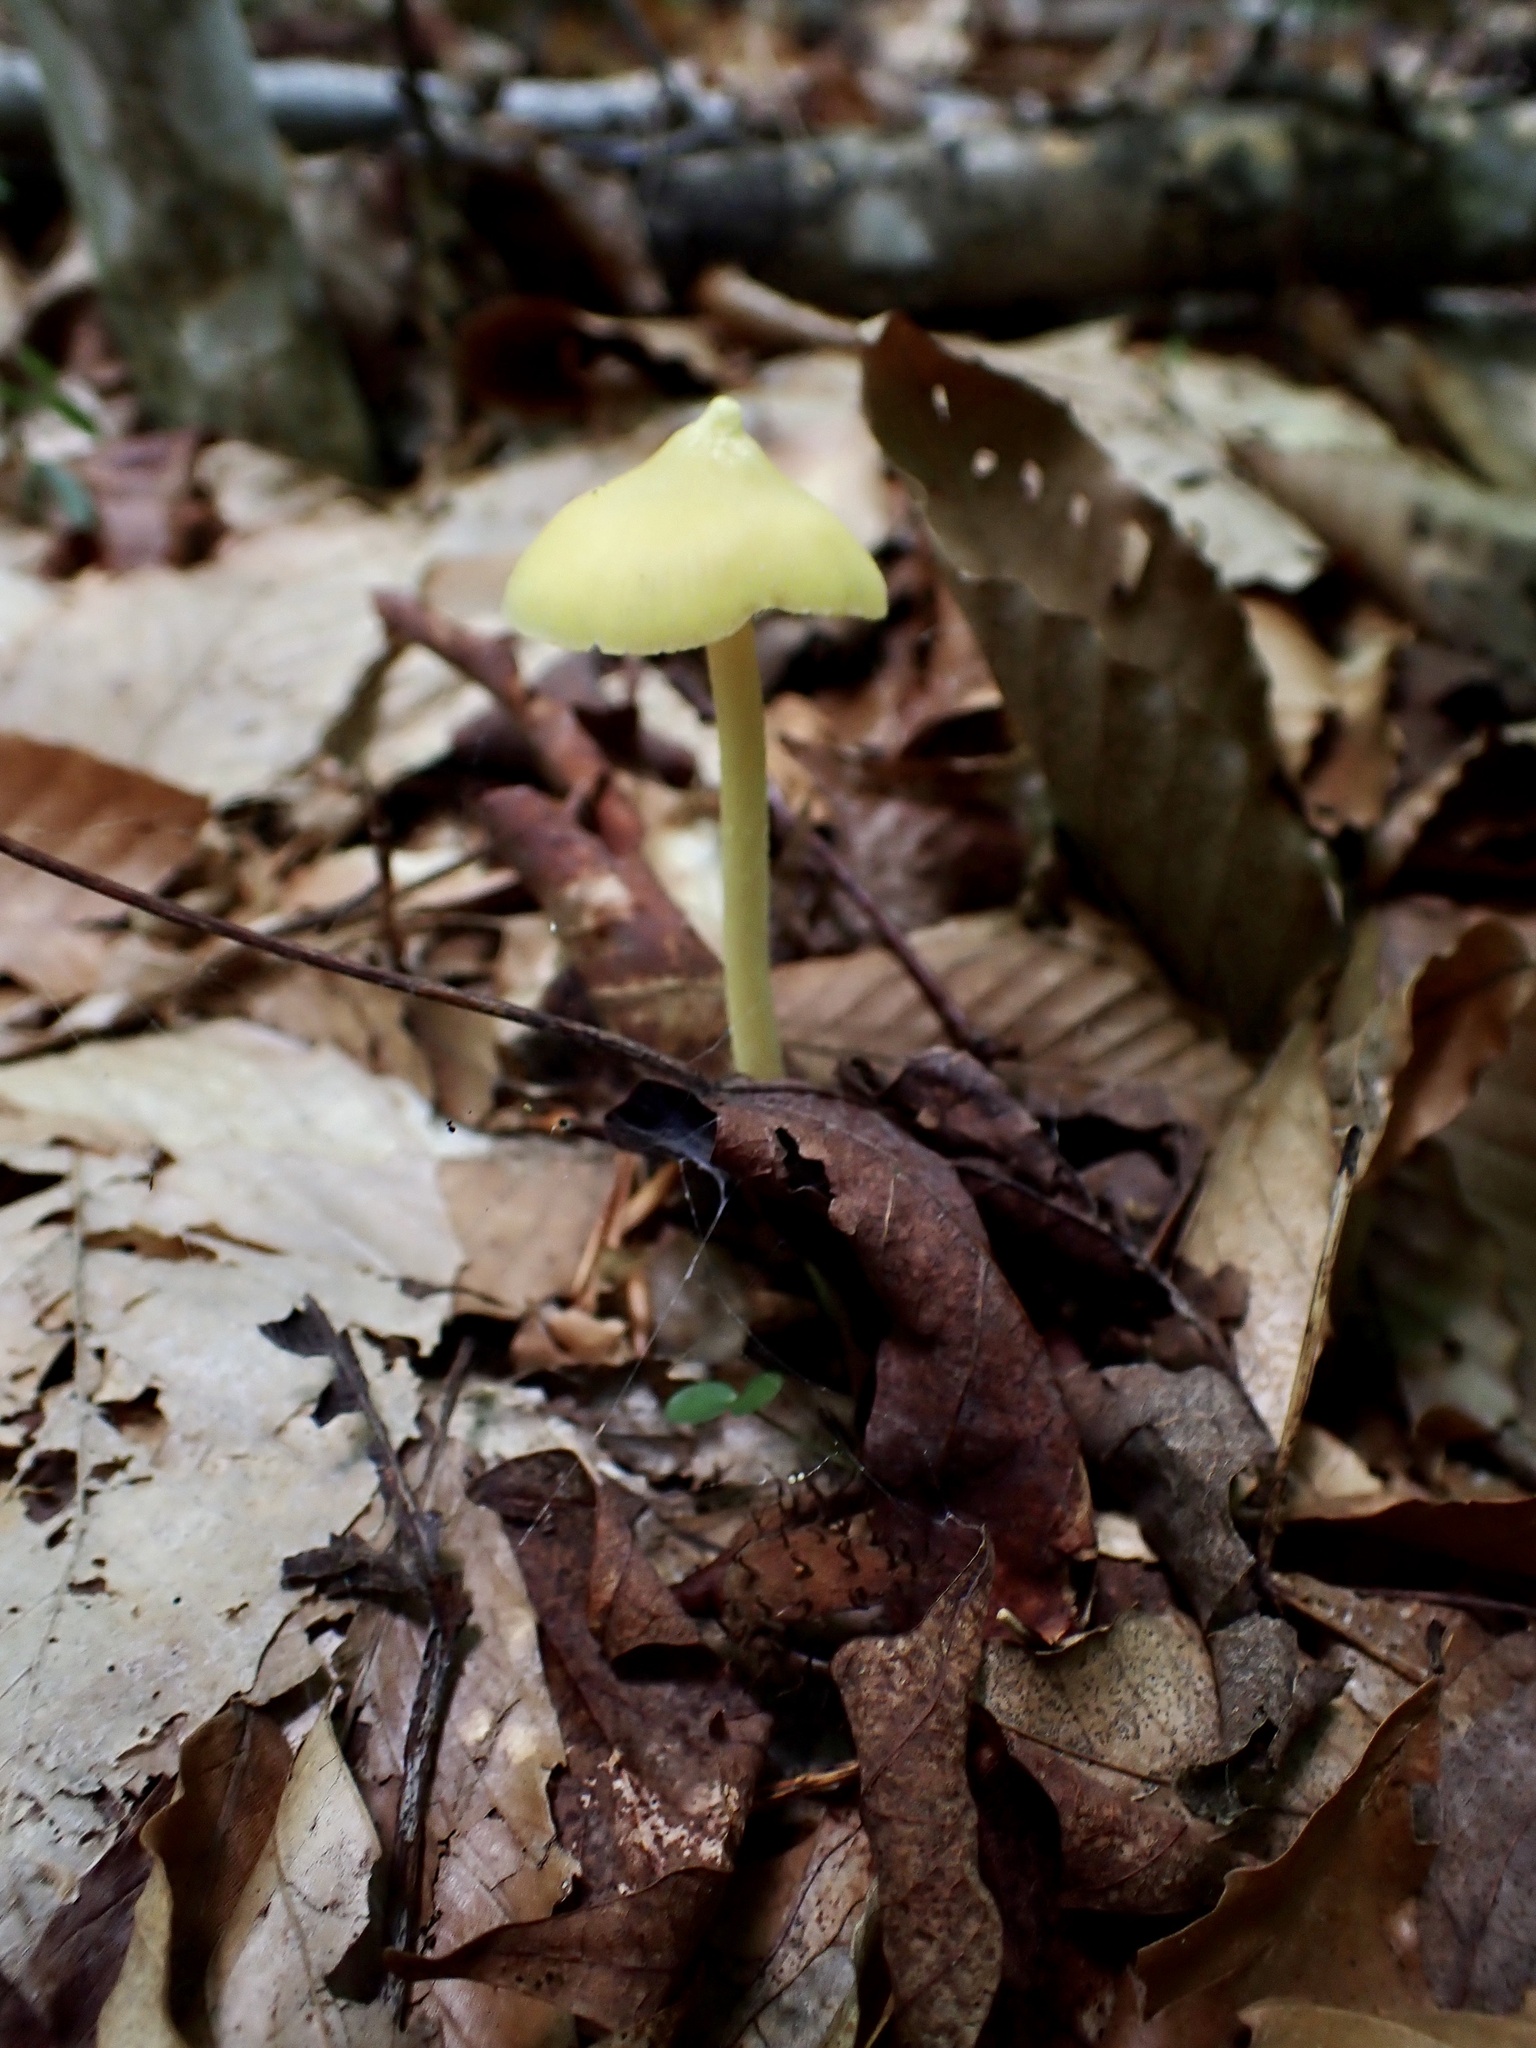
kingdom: Fungi
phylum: Basidiomycota
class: Agaricomycetes
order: Agaricales
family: Entolomataceae
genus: Entoloma
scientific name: Entoloma murrayi
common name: Yellow unicorn entoloma
